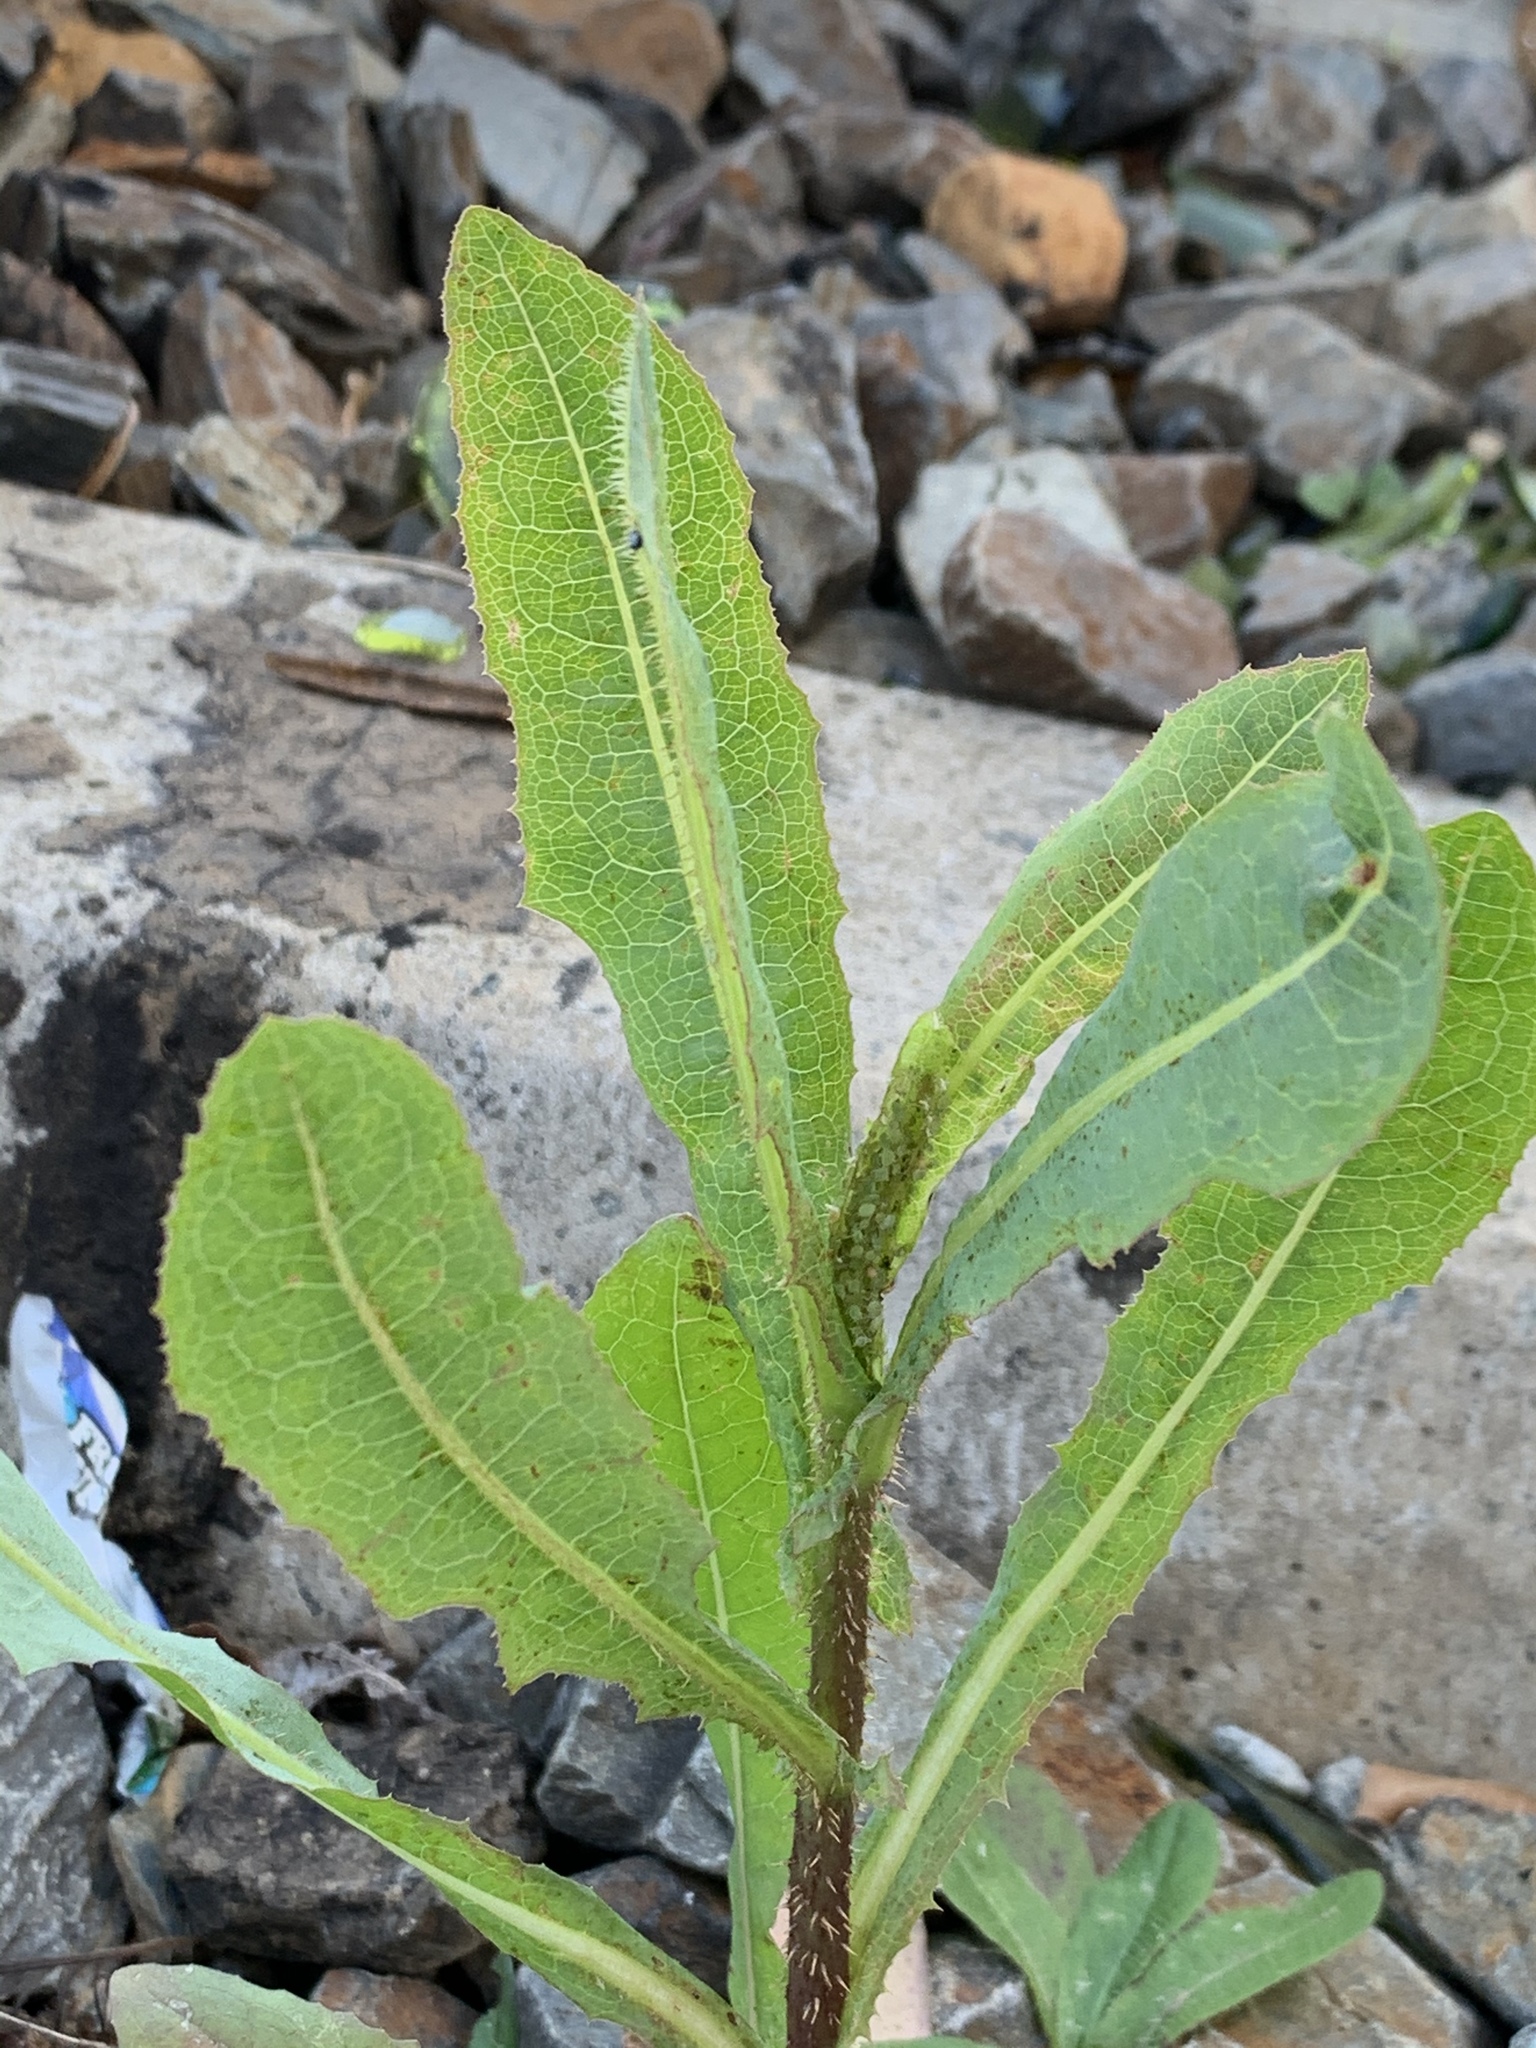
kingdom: Plantae
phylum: Tracheophyta
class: Magnoliopsida
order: Asterales
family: Asteraceae
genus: Lactuca
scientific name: Lactuca serriola
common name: Prickly lettuce
